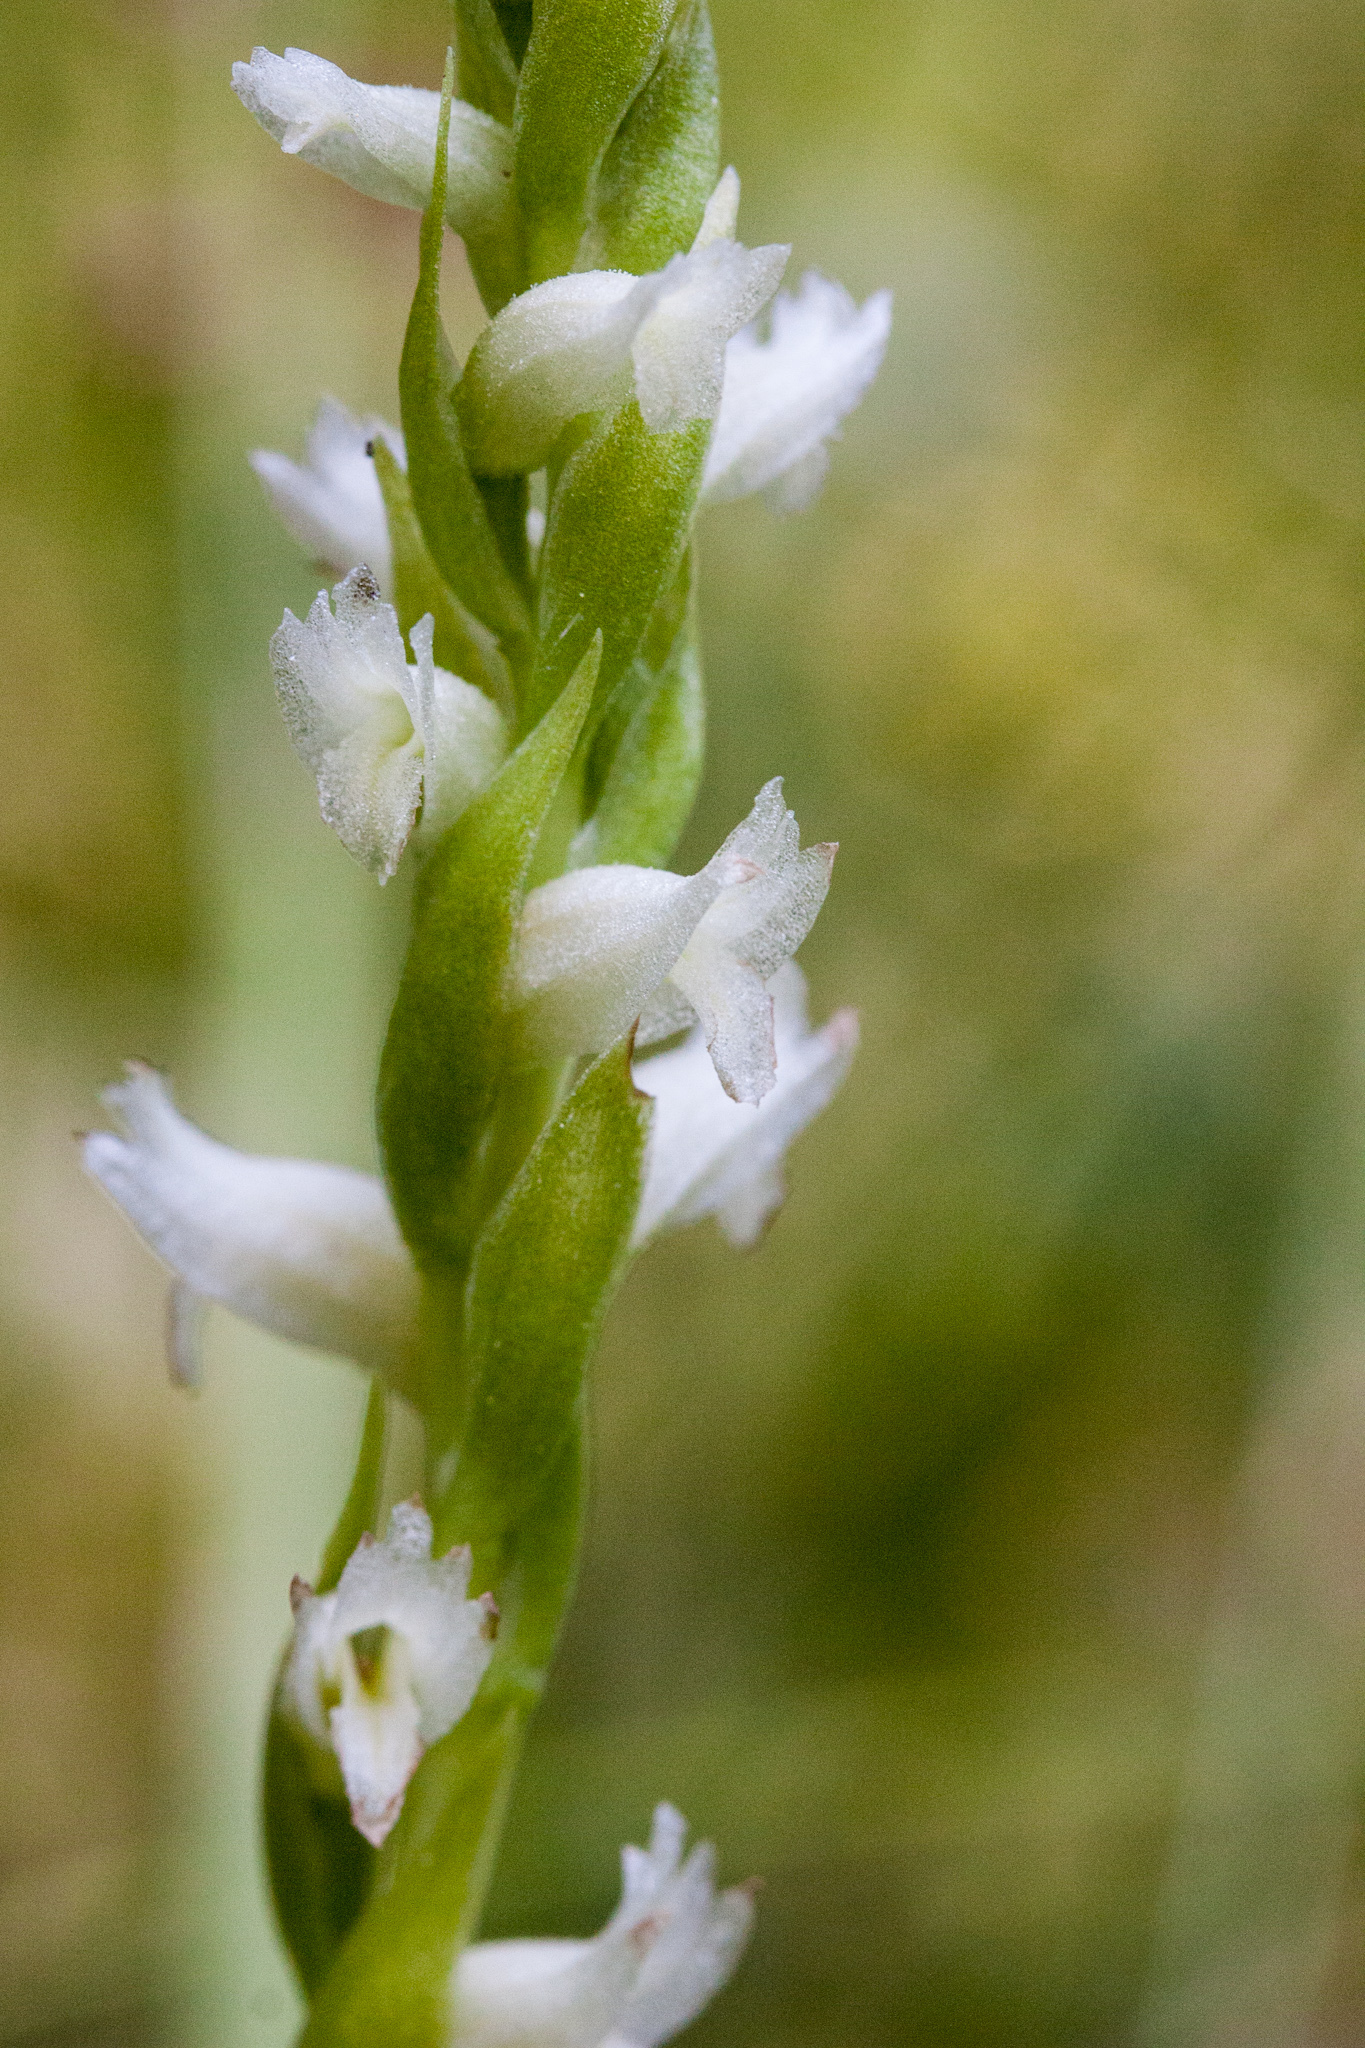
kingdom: Plantae
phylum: Tracheophyta
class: Liliopsida
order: Asparagales
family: Orchidaceae
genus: Spiranthes
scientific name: Spiranthes romanzoffiana
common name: Irish lady's-tresses
